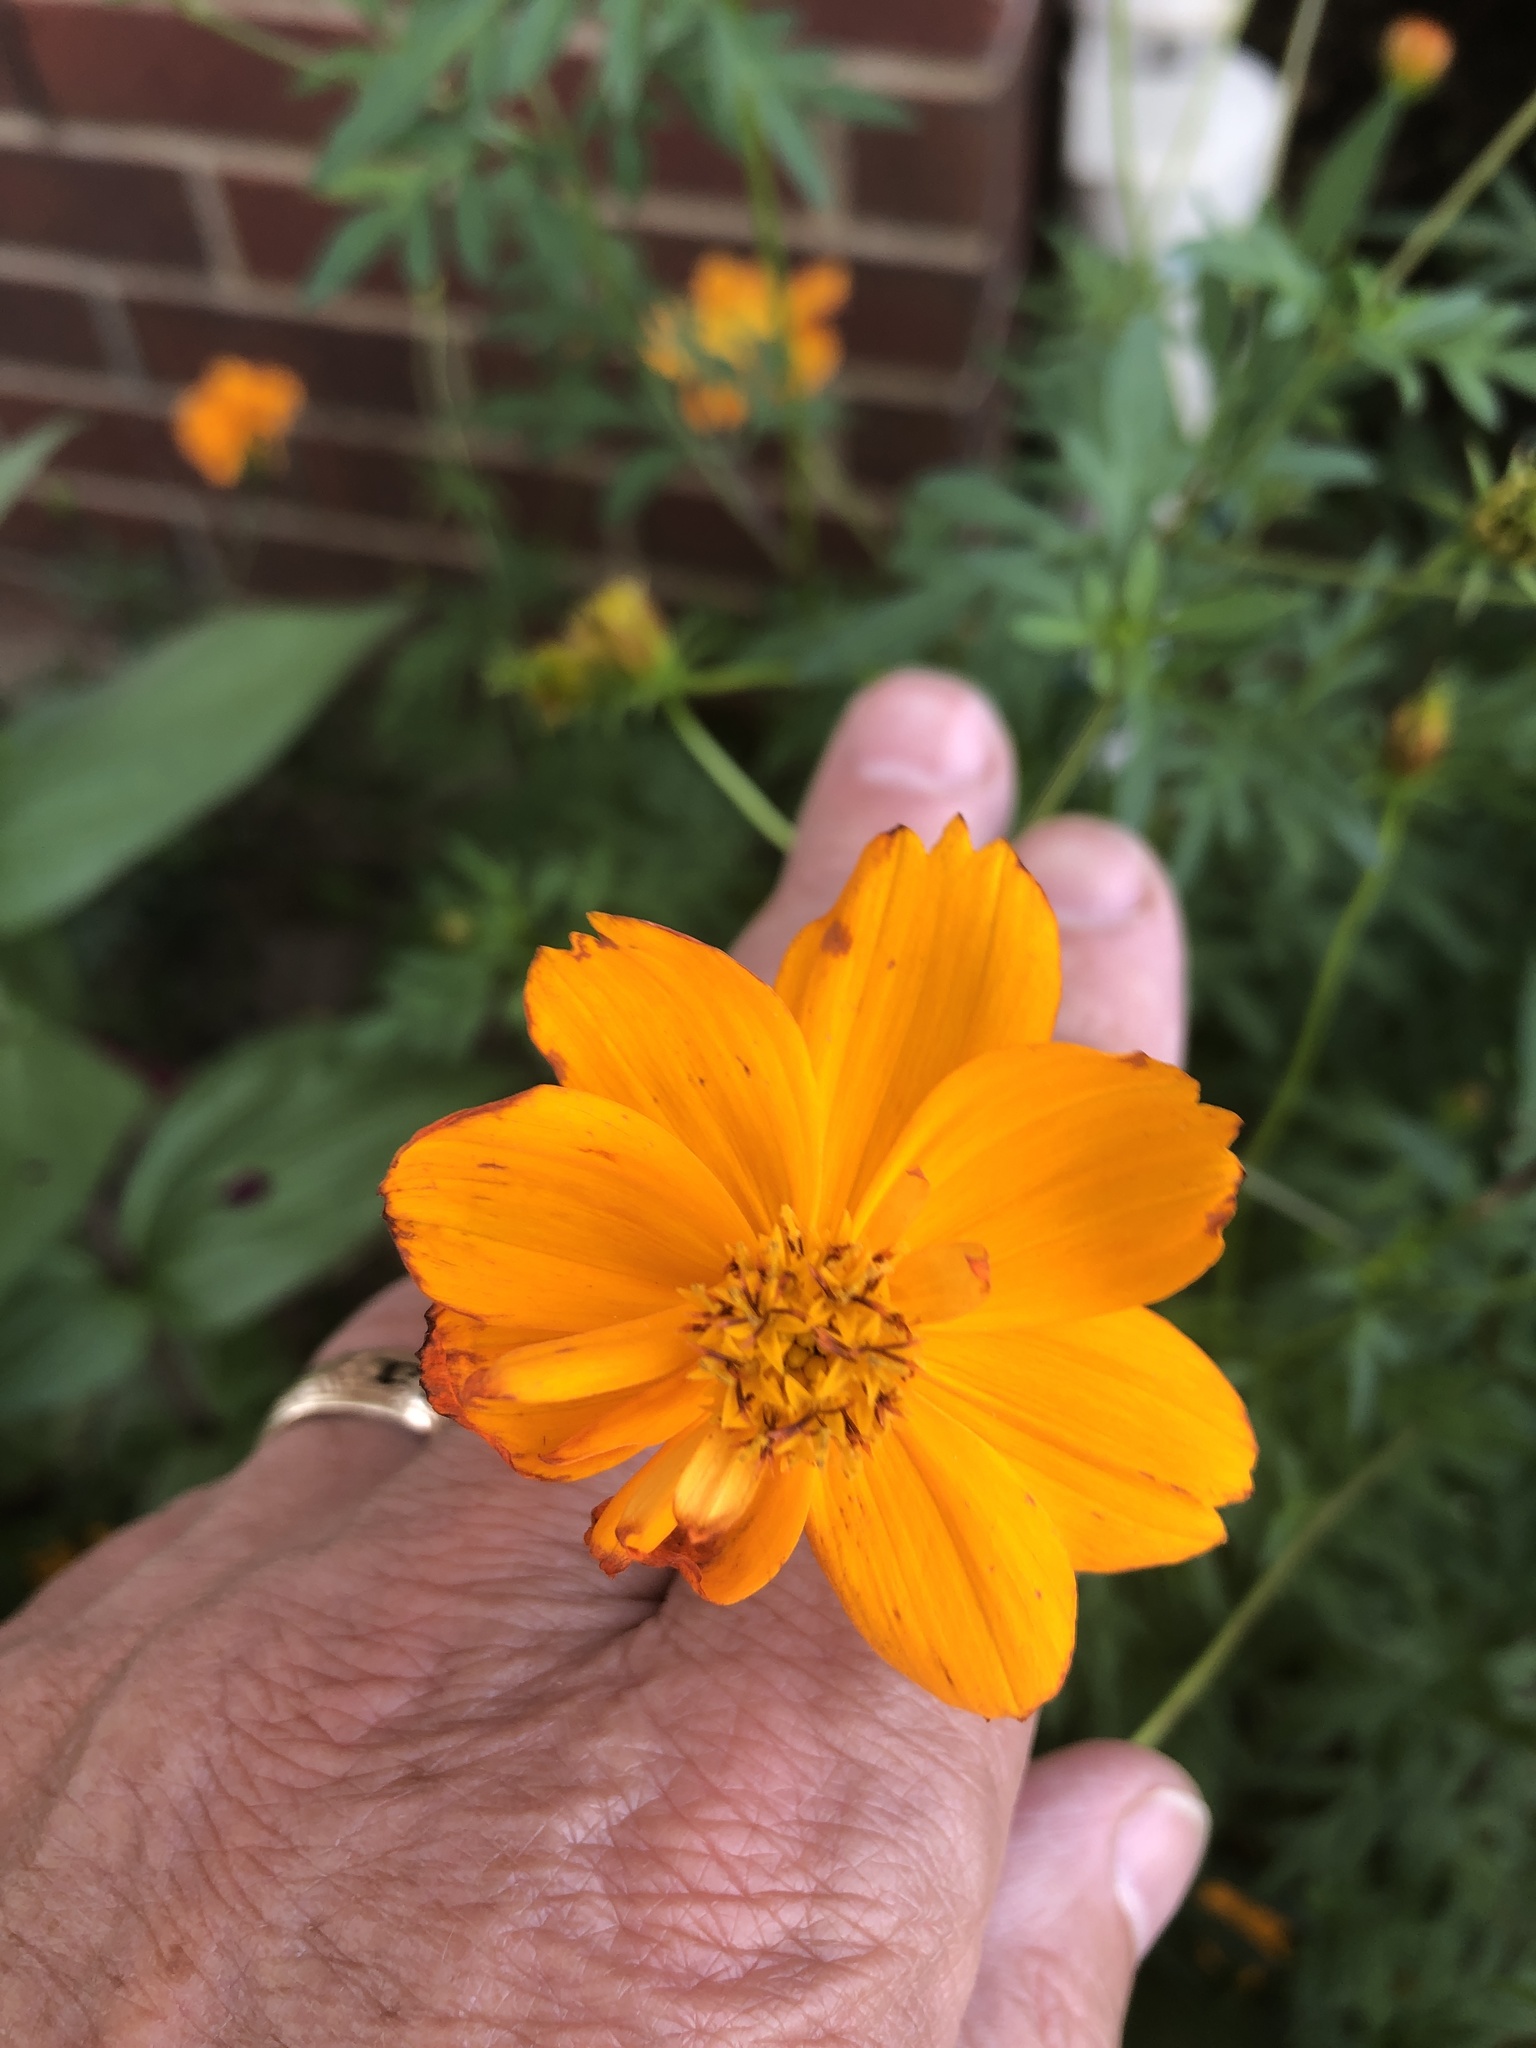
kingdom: Plantae
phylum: Tracheophyta
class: Magnoliopsida
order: Asterales
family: Asteraceae
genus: Cosmos
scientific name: Cosmos sulphureus
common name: Sulphur cosmos
